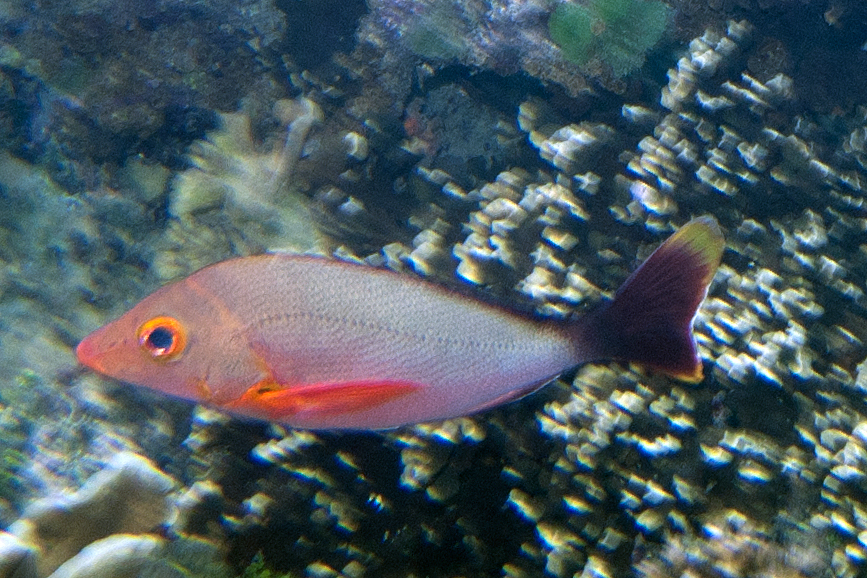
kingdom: Animalia
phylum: Chordata
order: Perciformes
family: Lutjanidae
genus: Lutjanus
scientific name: Lutjanus gibbus
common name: Humpback snapper
